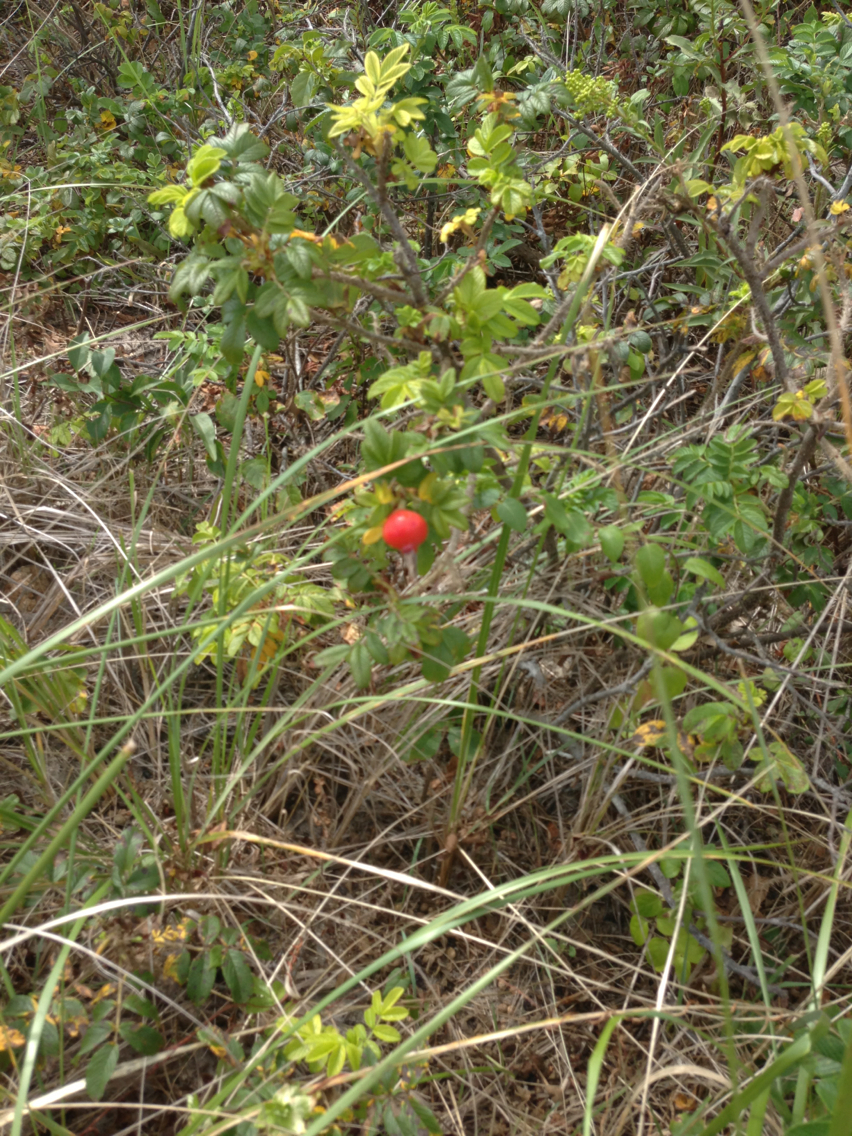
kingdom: Plantae
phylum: Tracheophyta
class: Magnoliopsida
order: Rosales
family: Rosaceae
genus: Rosa
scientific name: Rosa rugosa
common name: Japanese rose
